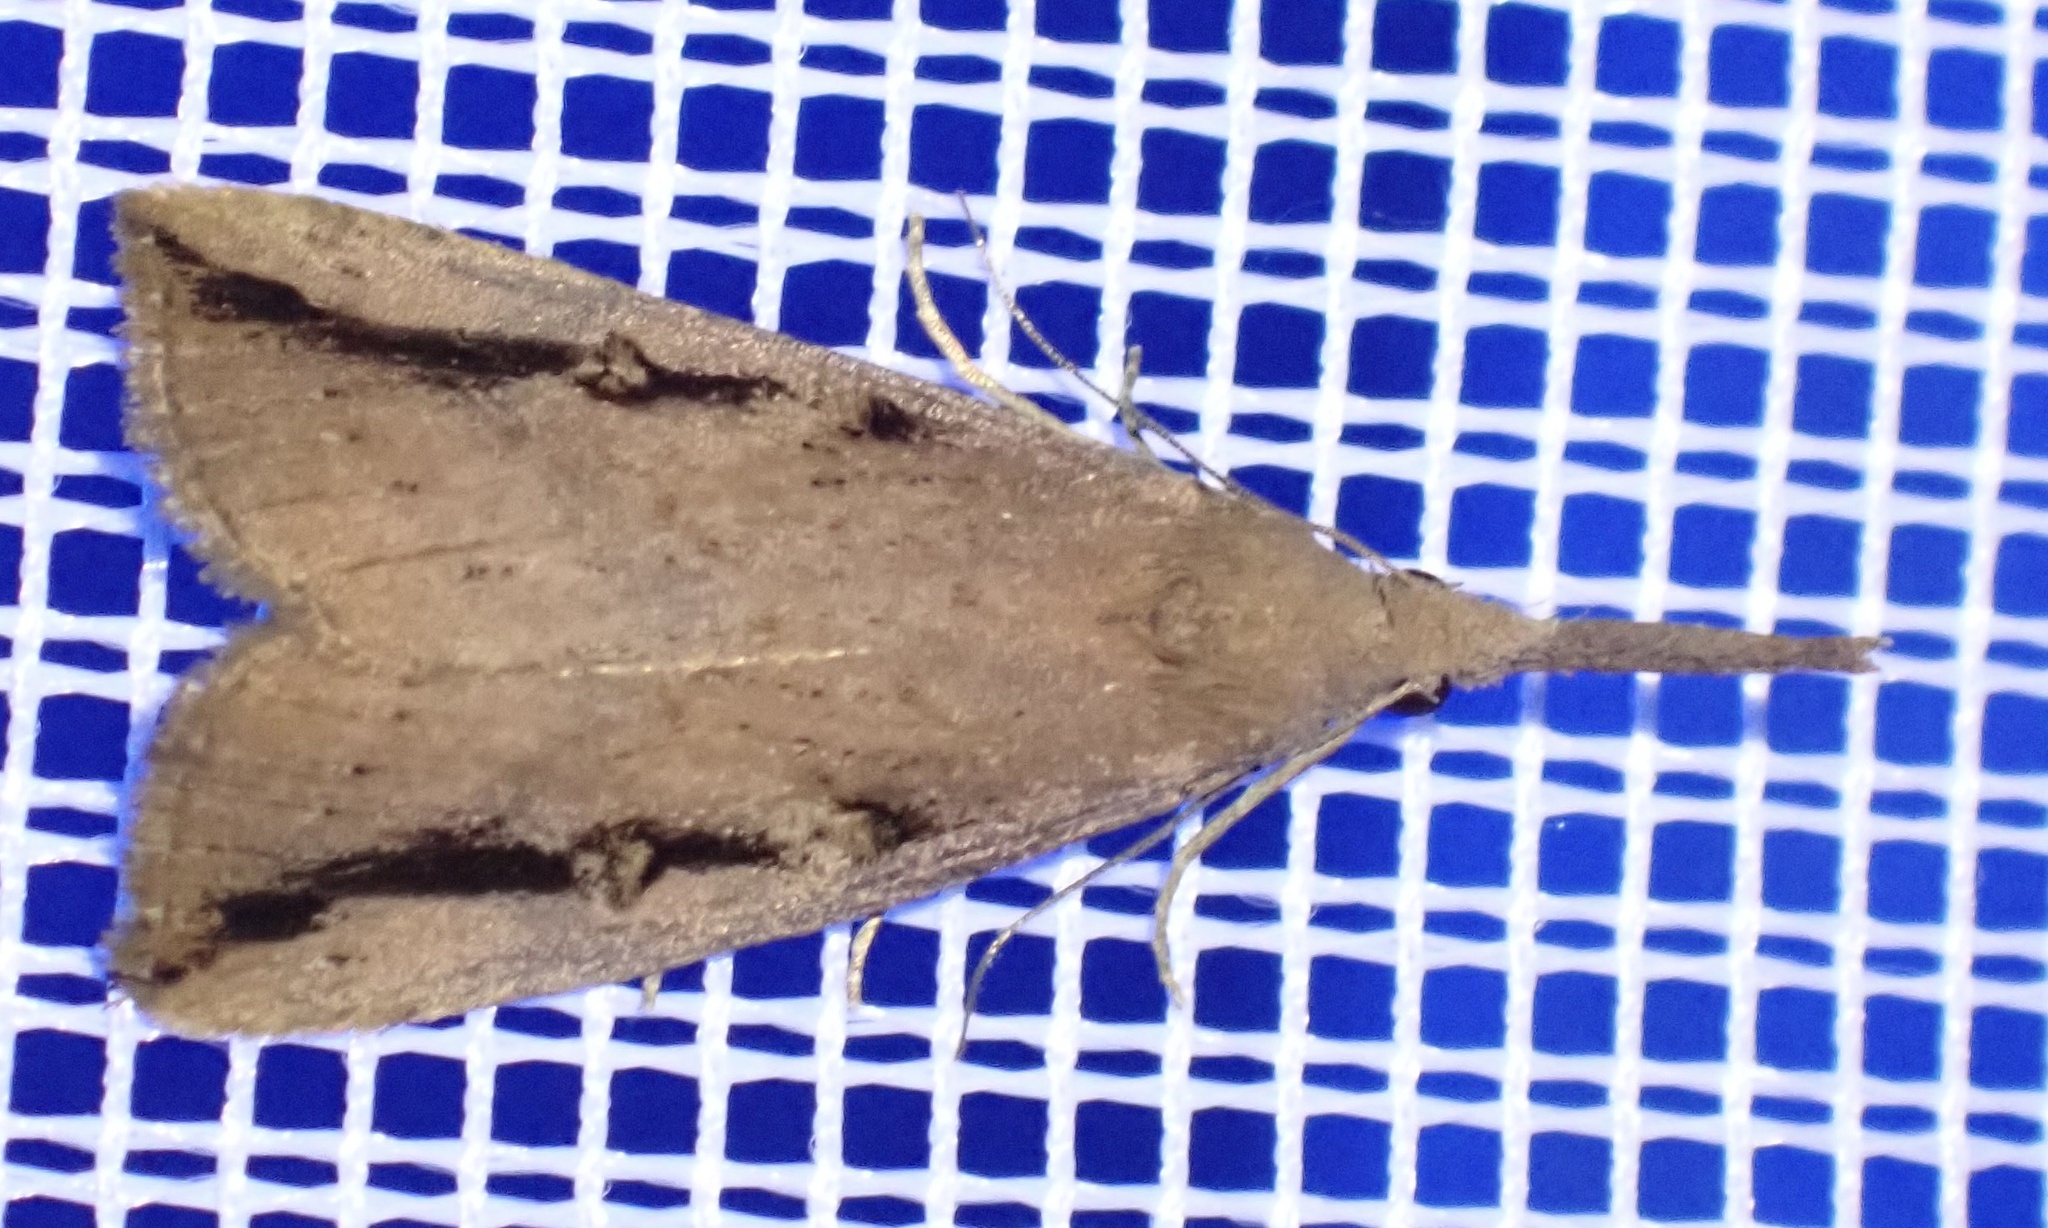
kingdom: Animalia
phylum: Arthropoda
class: Insecta
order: Lepidoptera
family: Erebidae
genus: Hypena
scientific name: Hypena subvittalis
